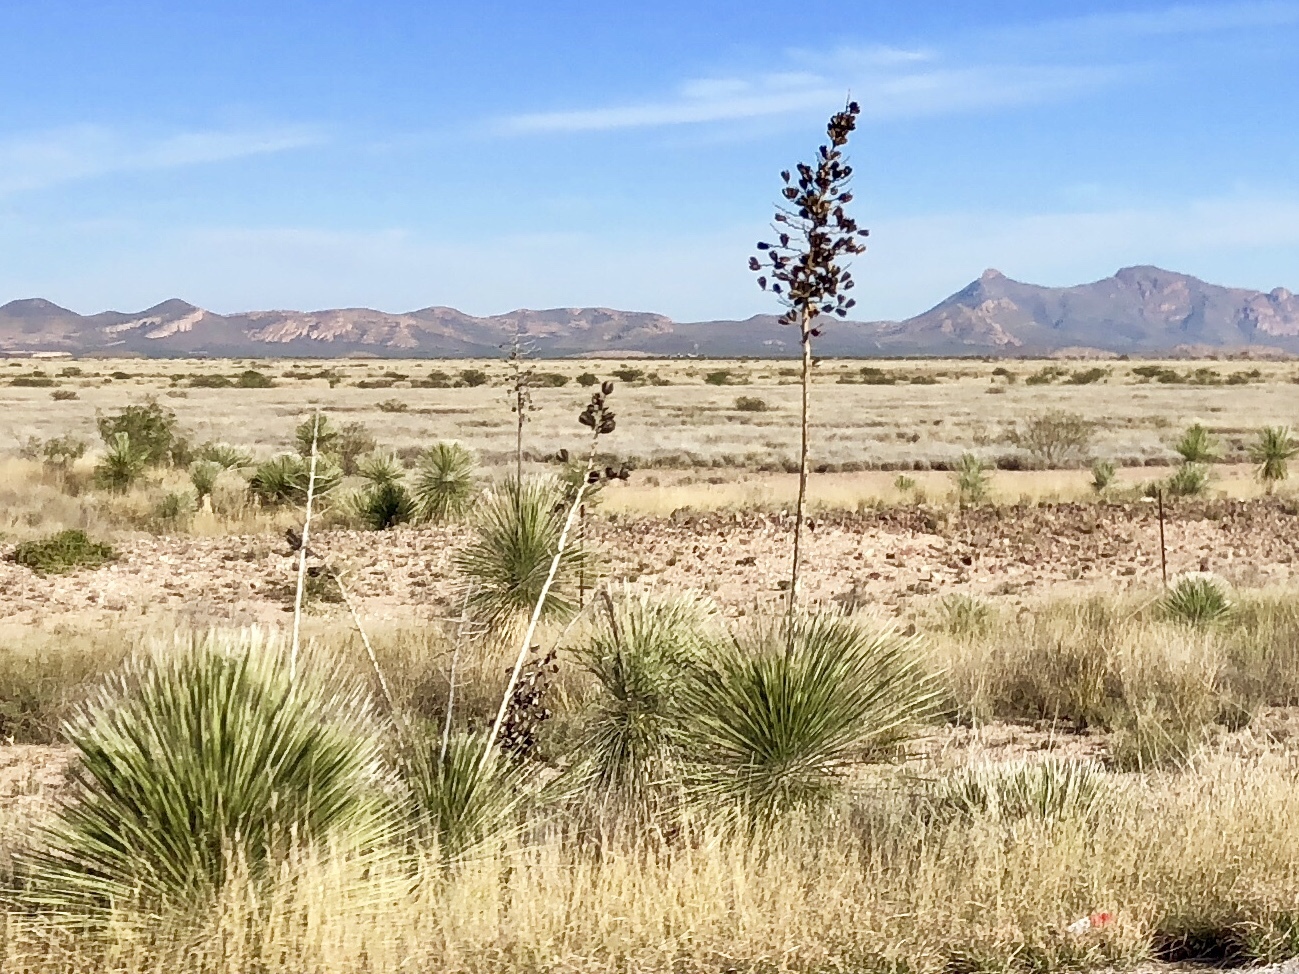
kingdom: Plantae
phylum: Tracheophyta
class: Liliopsida
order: Asparagales
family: Asparagaceae
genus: Yucca
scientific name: Yucca elata
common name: Palmella
